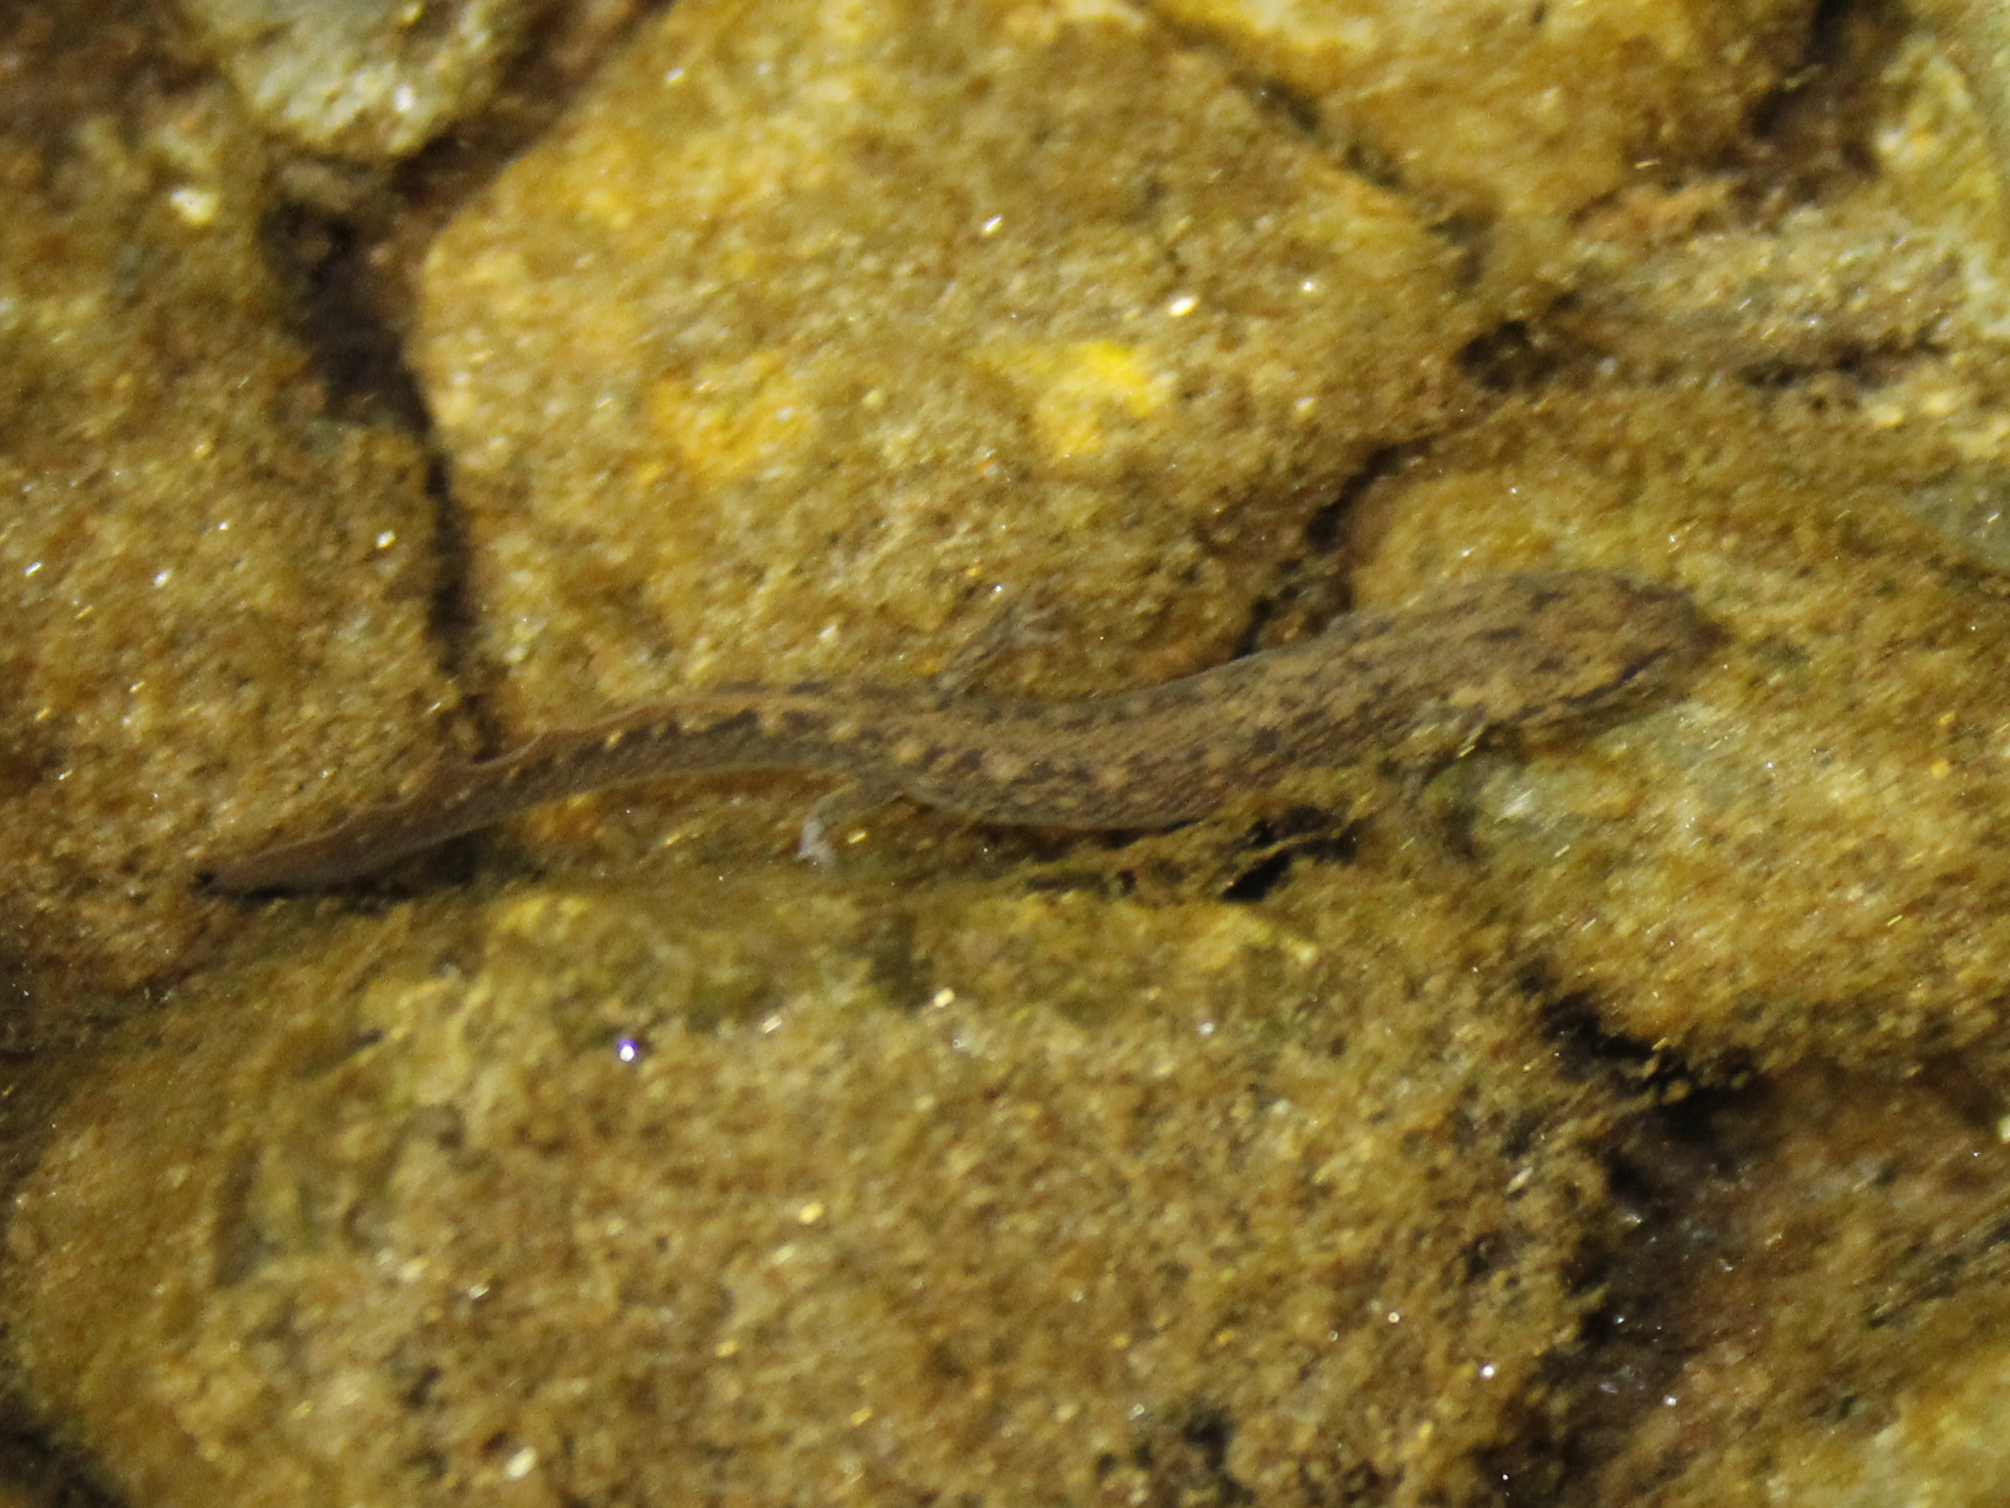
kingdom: Animalia
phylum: Chordata
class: Amphibia
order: Caudata
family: Plethodontidae
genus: Eurycea
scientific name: Eurycea bislineata
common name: Northern two-lined salamander
